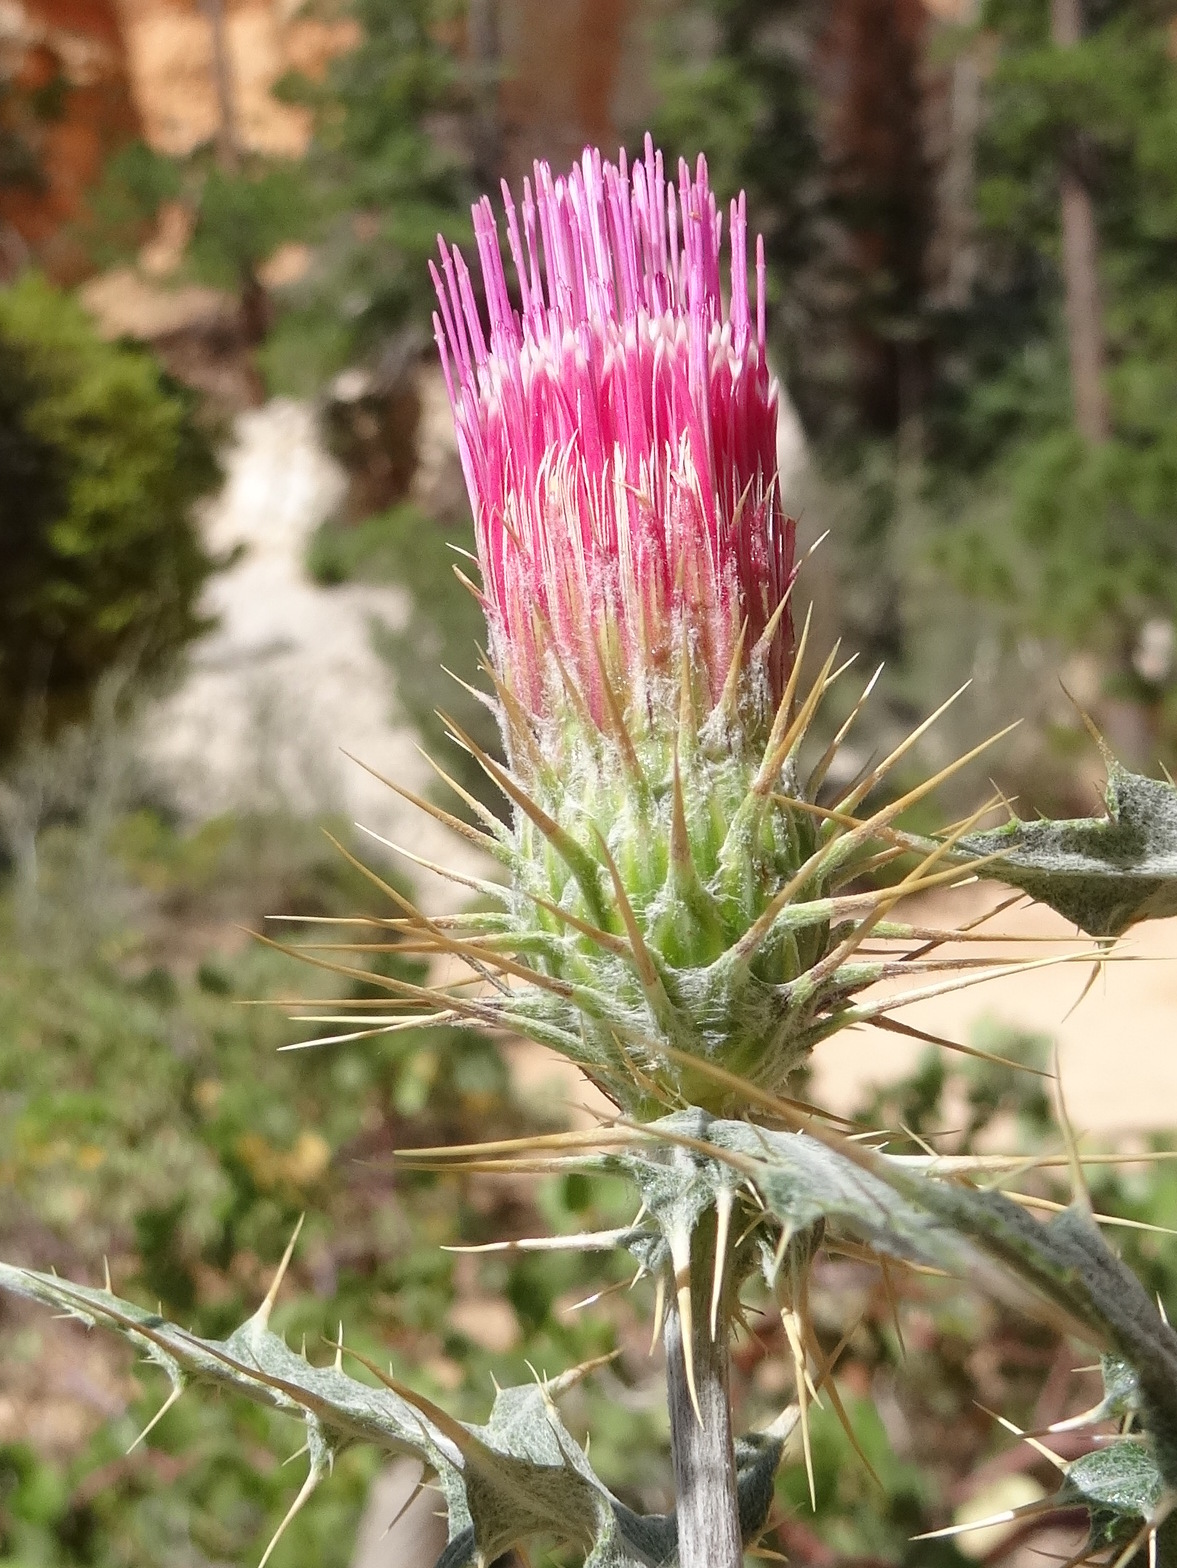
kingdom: Plantae
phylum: Tracheophyta
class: Magnoliopsida
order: Asterales
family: Asteraceae
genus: Cirsium
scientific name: Cirsium arizonicum
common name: Arizona thistle
